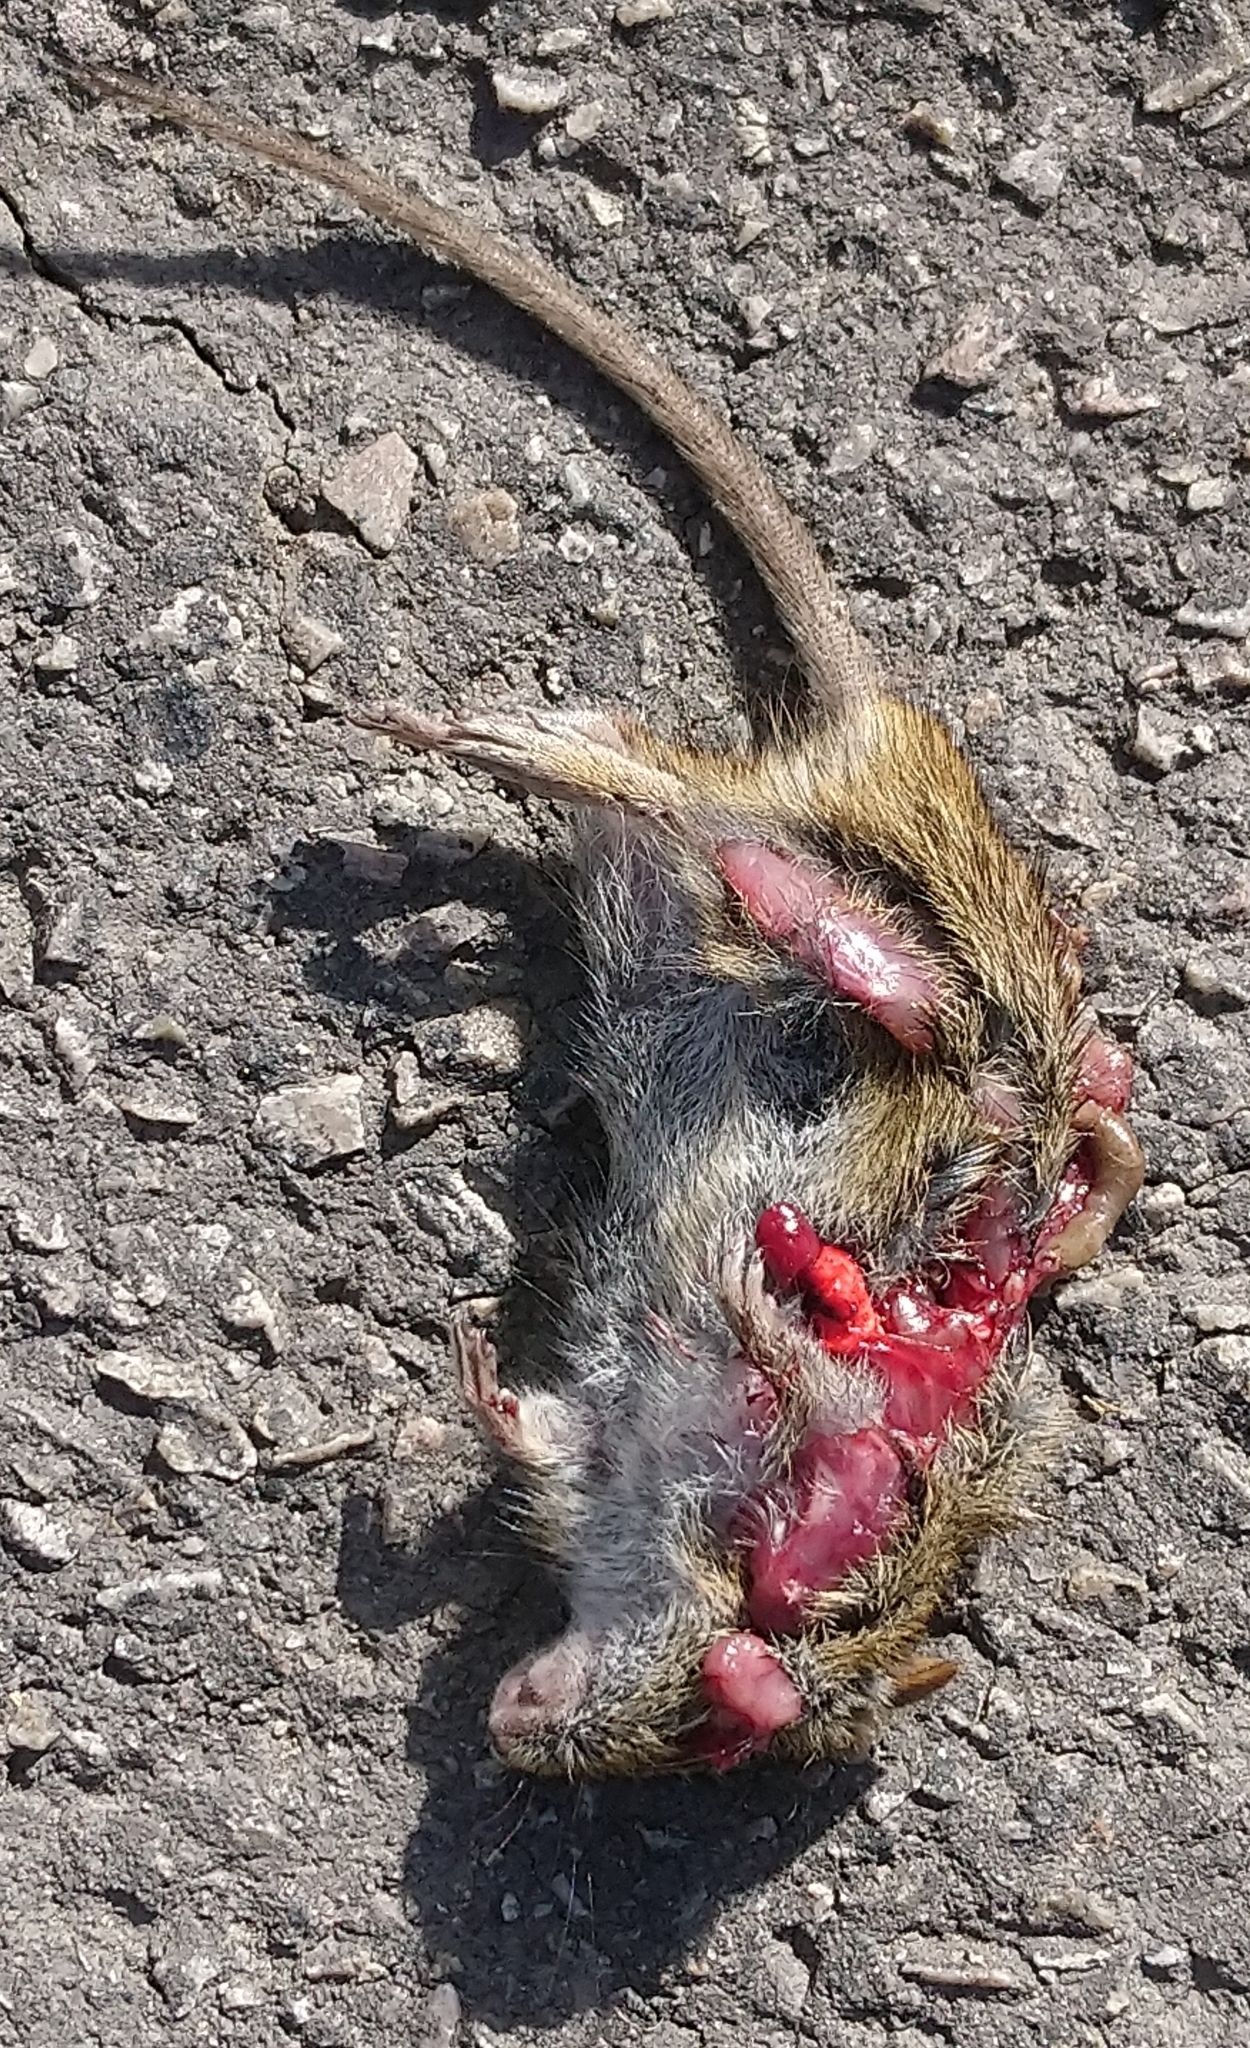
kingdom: Animalia
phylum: Chordata
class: Mammalia
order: Rodentia
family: Muridae
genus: Rhabdomys
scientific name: Rhabdomys pumilio
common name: Xeric four-striped grass rat
